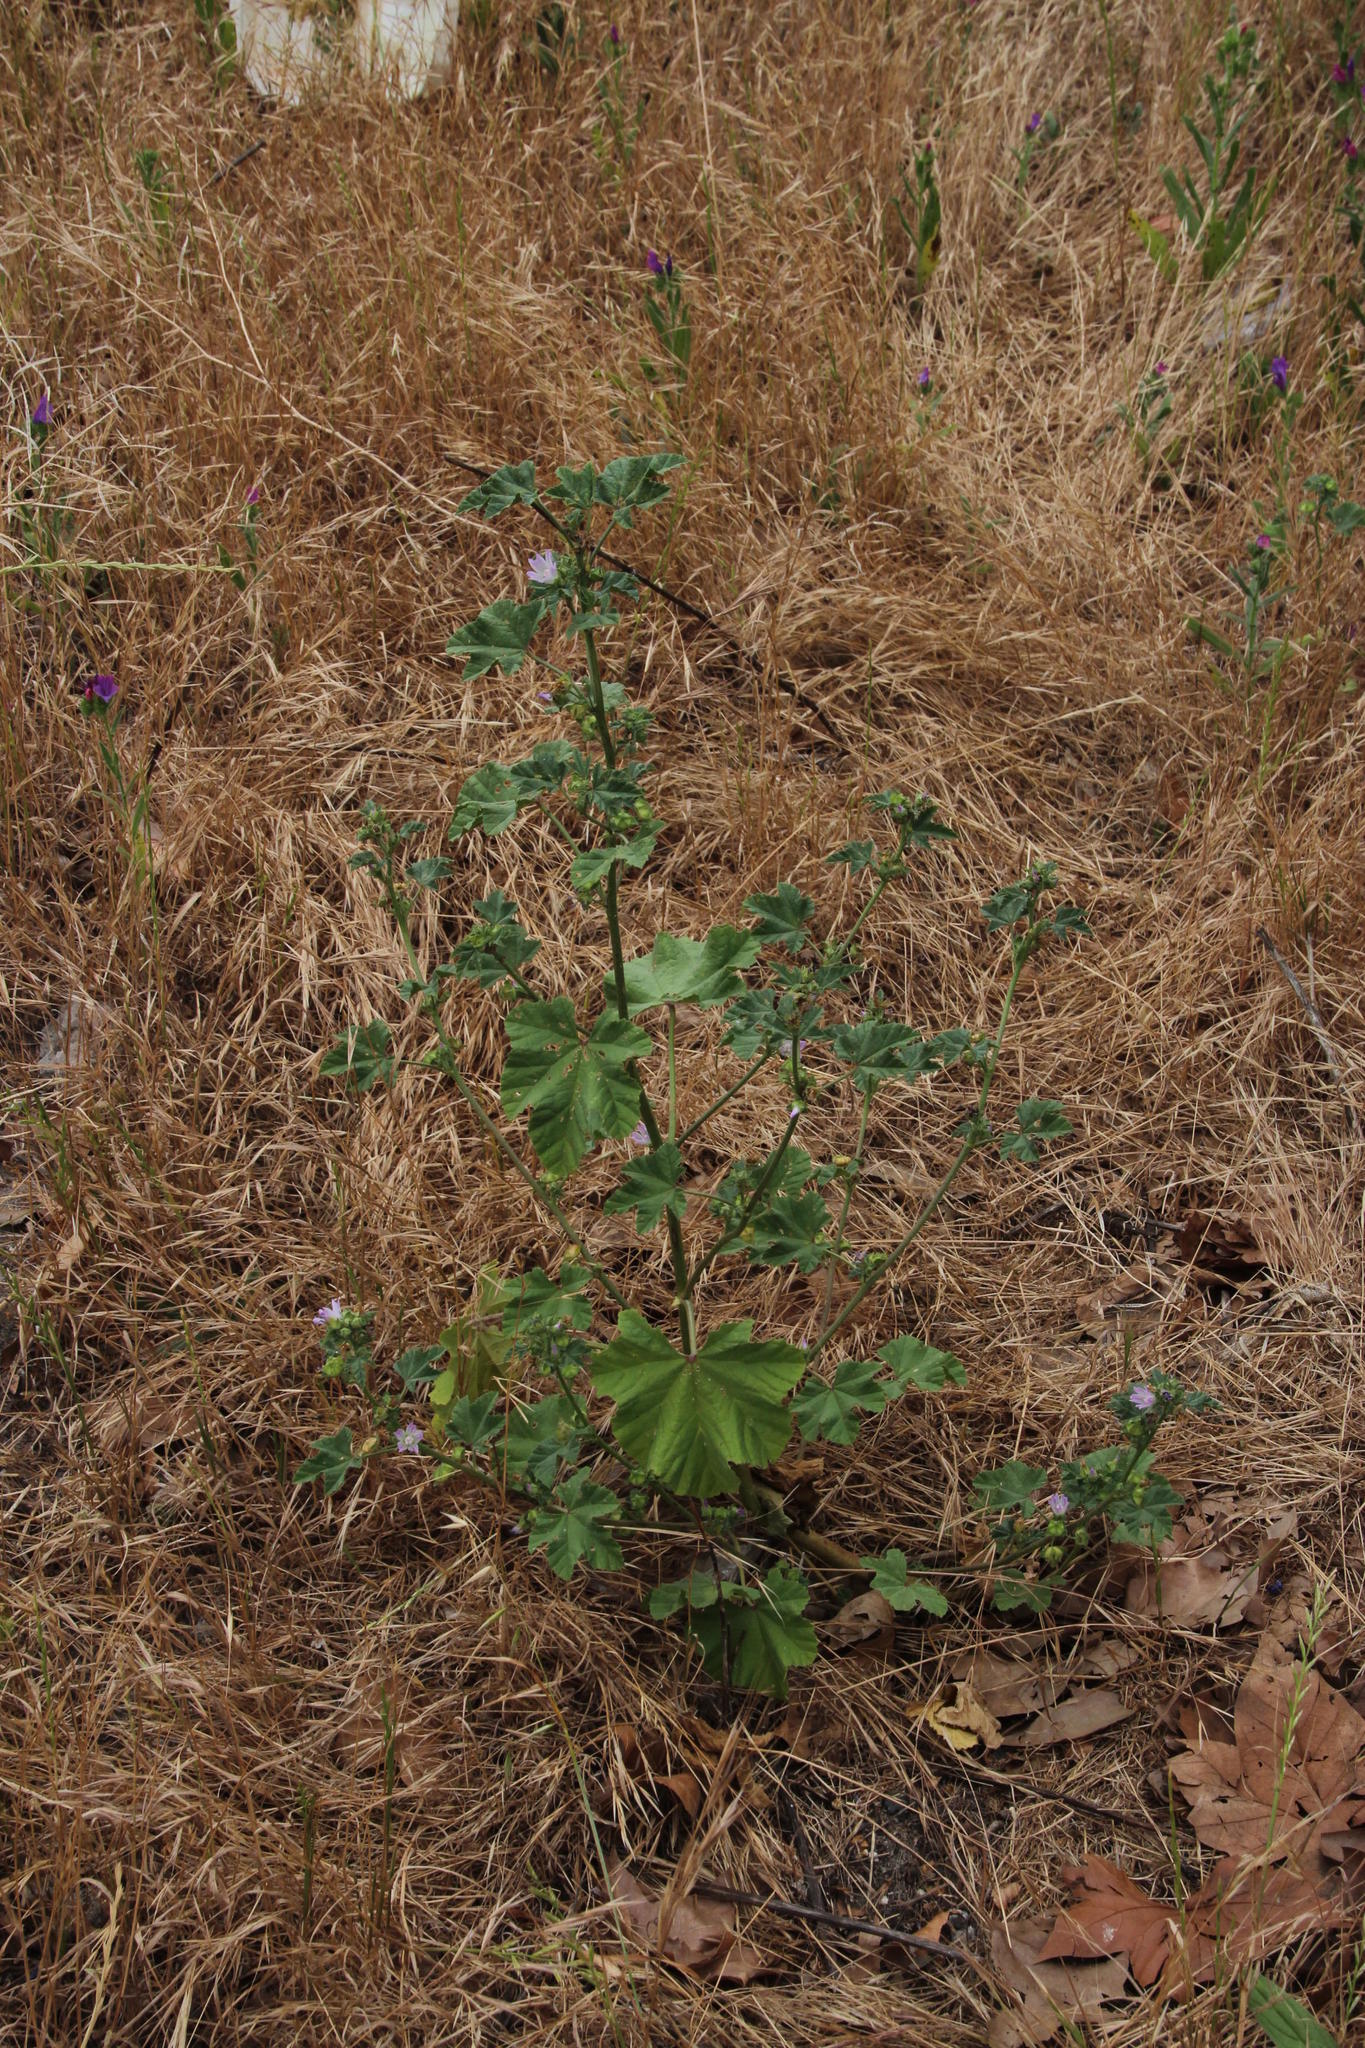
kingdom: Plantae
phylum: Tracheophyta
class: Magnoliopsida
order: Malvales
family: Malvaceae
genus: Malva
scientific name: Malva parviflora
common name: Least mallow
